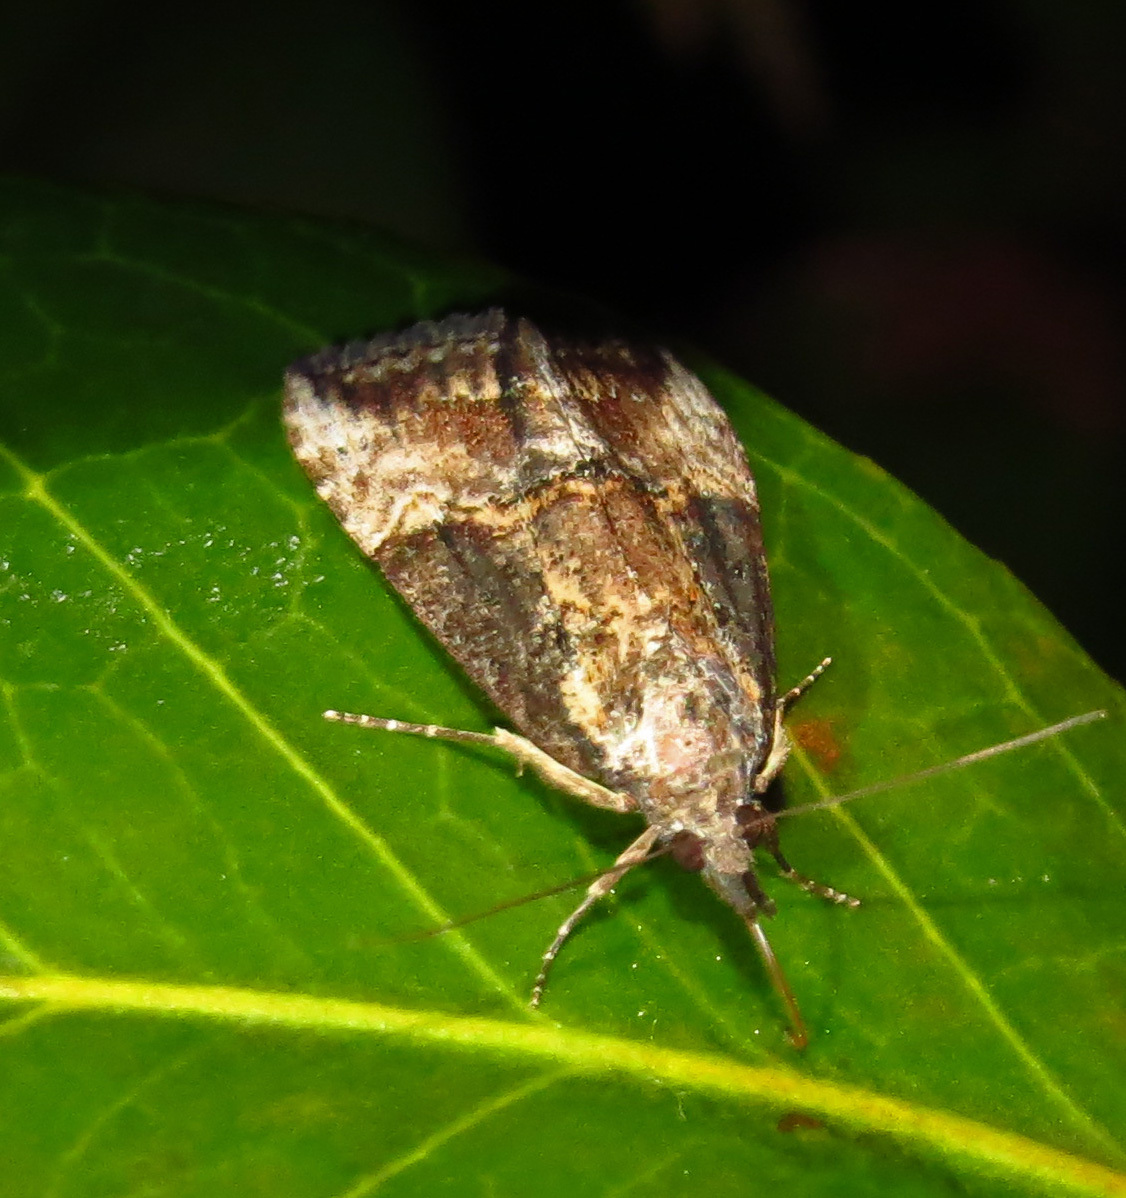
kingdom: Animalia
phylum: Arthropoda
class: Insecta
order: Lepidoptera
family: Erebidae
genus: Hypena
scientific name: Hypena scabra
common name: Green cloverworm
